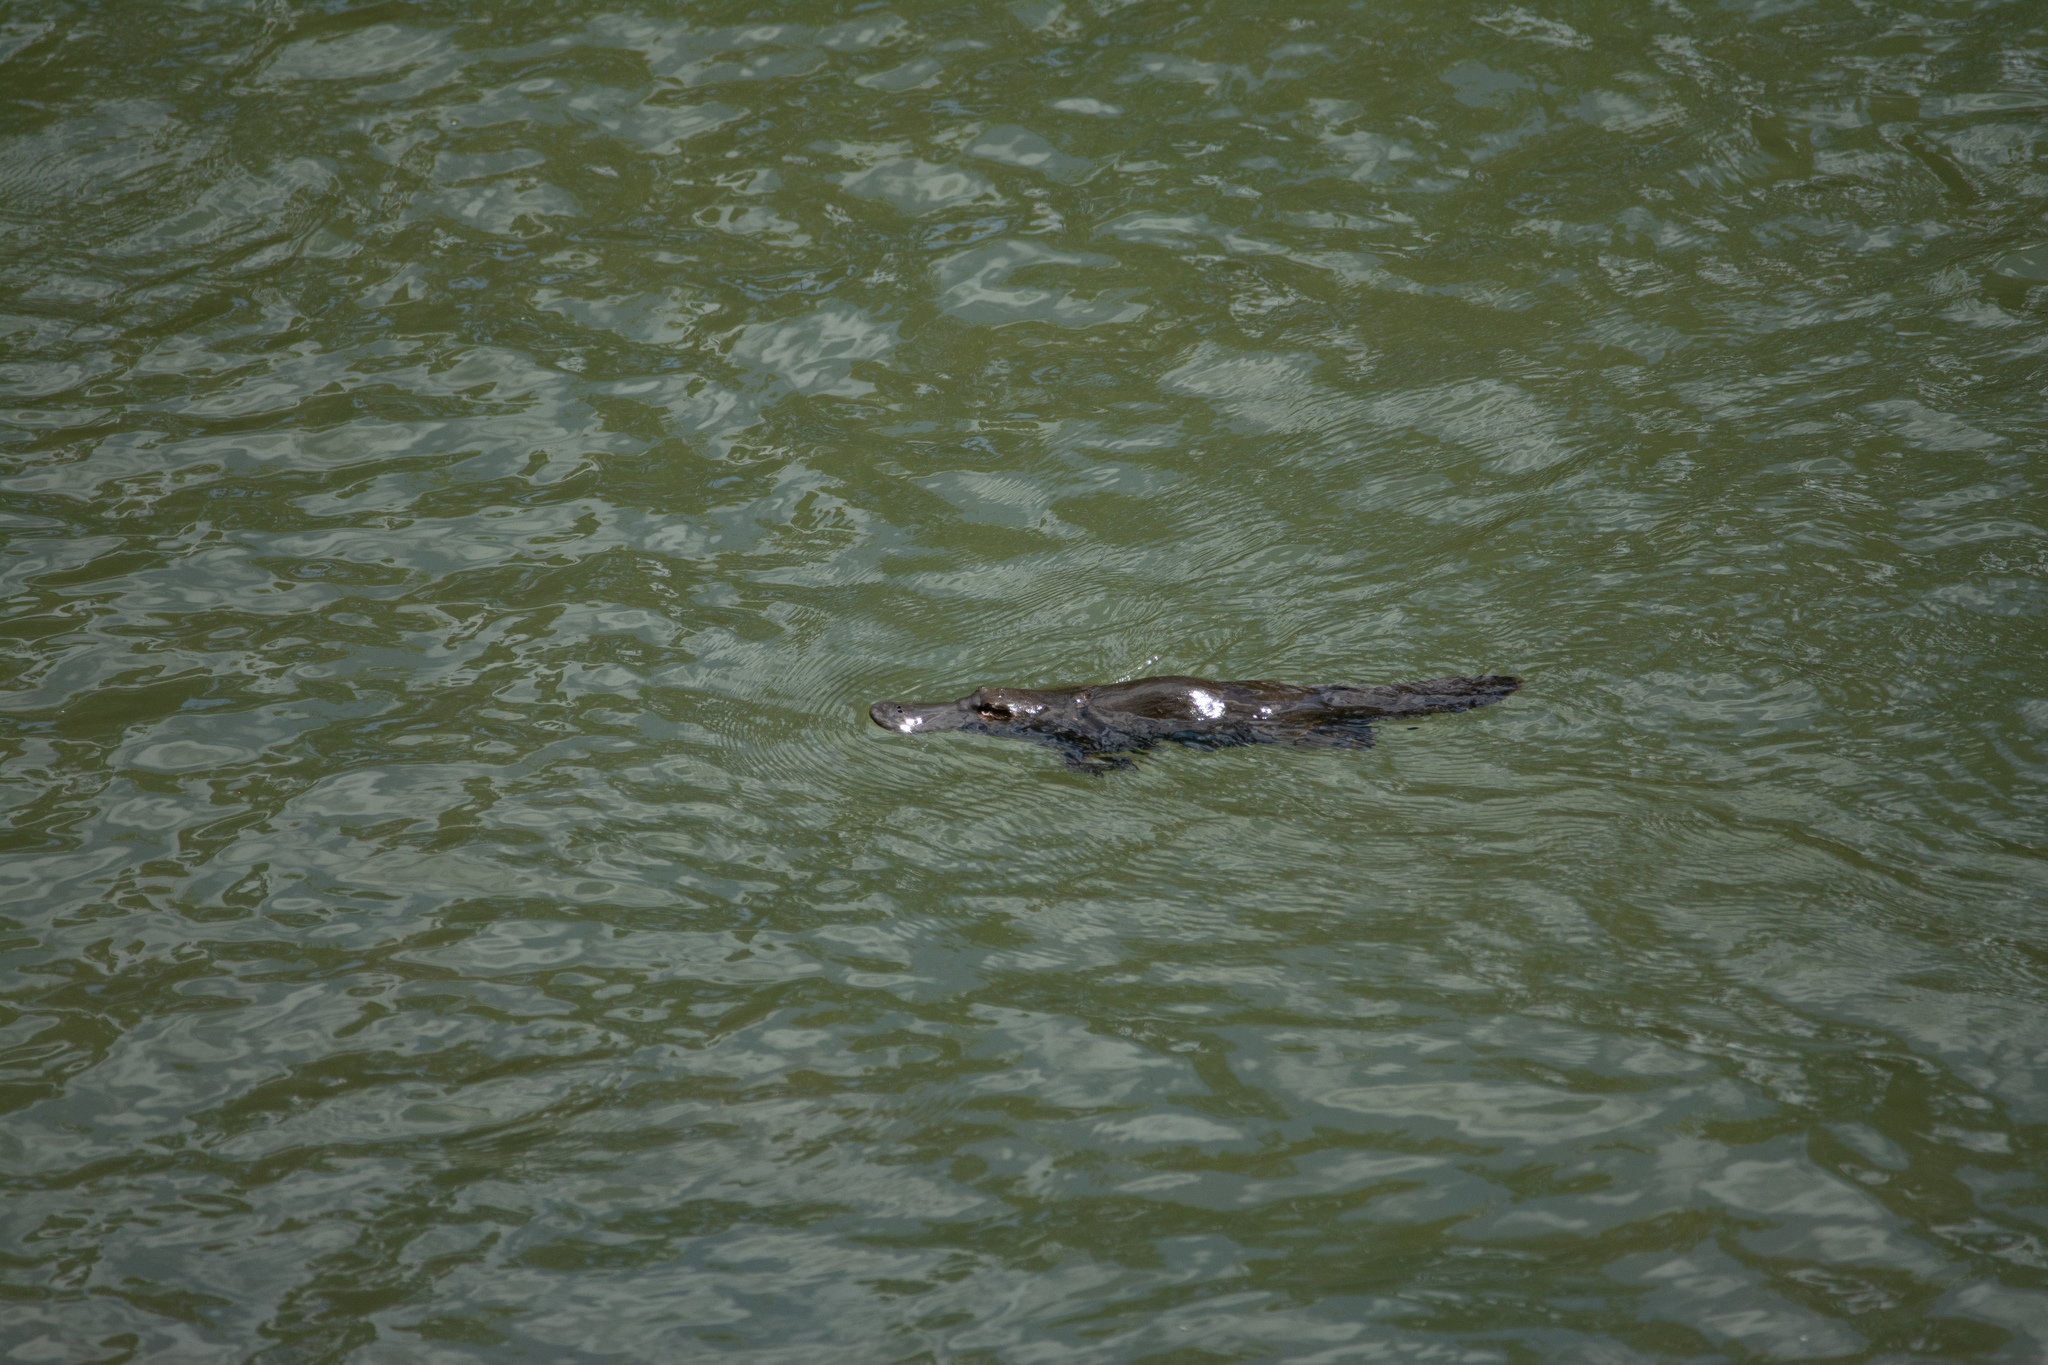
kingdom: Animalia
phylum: Chordata
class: Mammalia
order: Monotremata
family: Ornithorhynchidae
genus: Ornithorhynchus
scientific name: Ornithorhynchus anatinus
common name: Platypus
